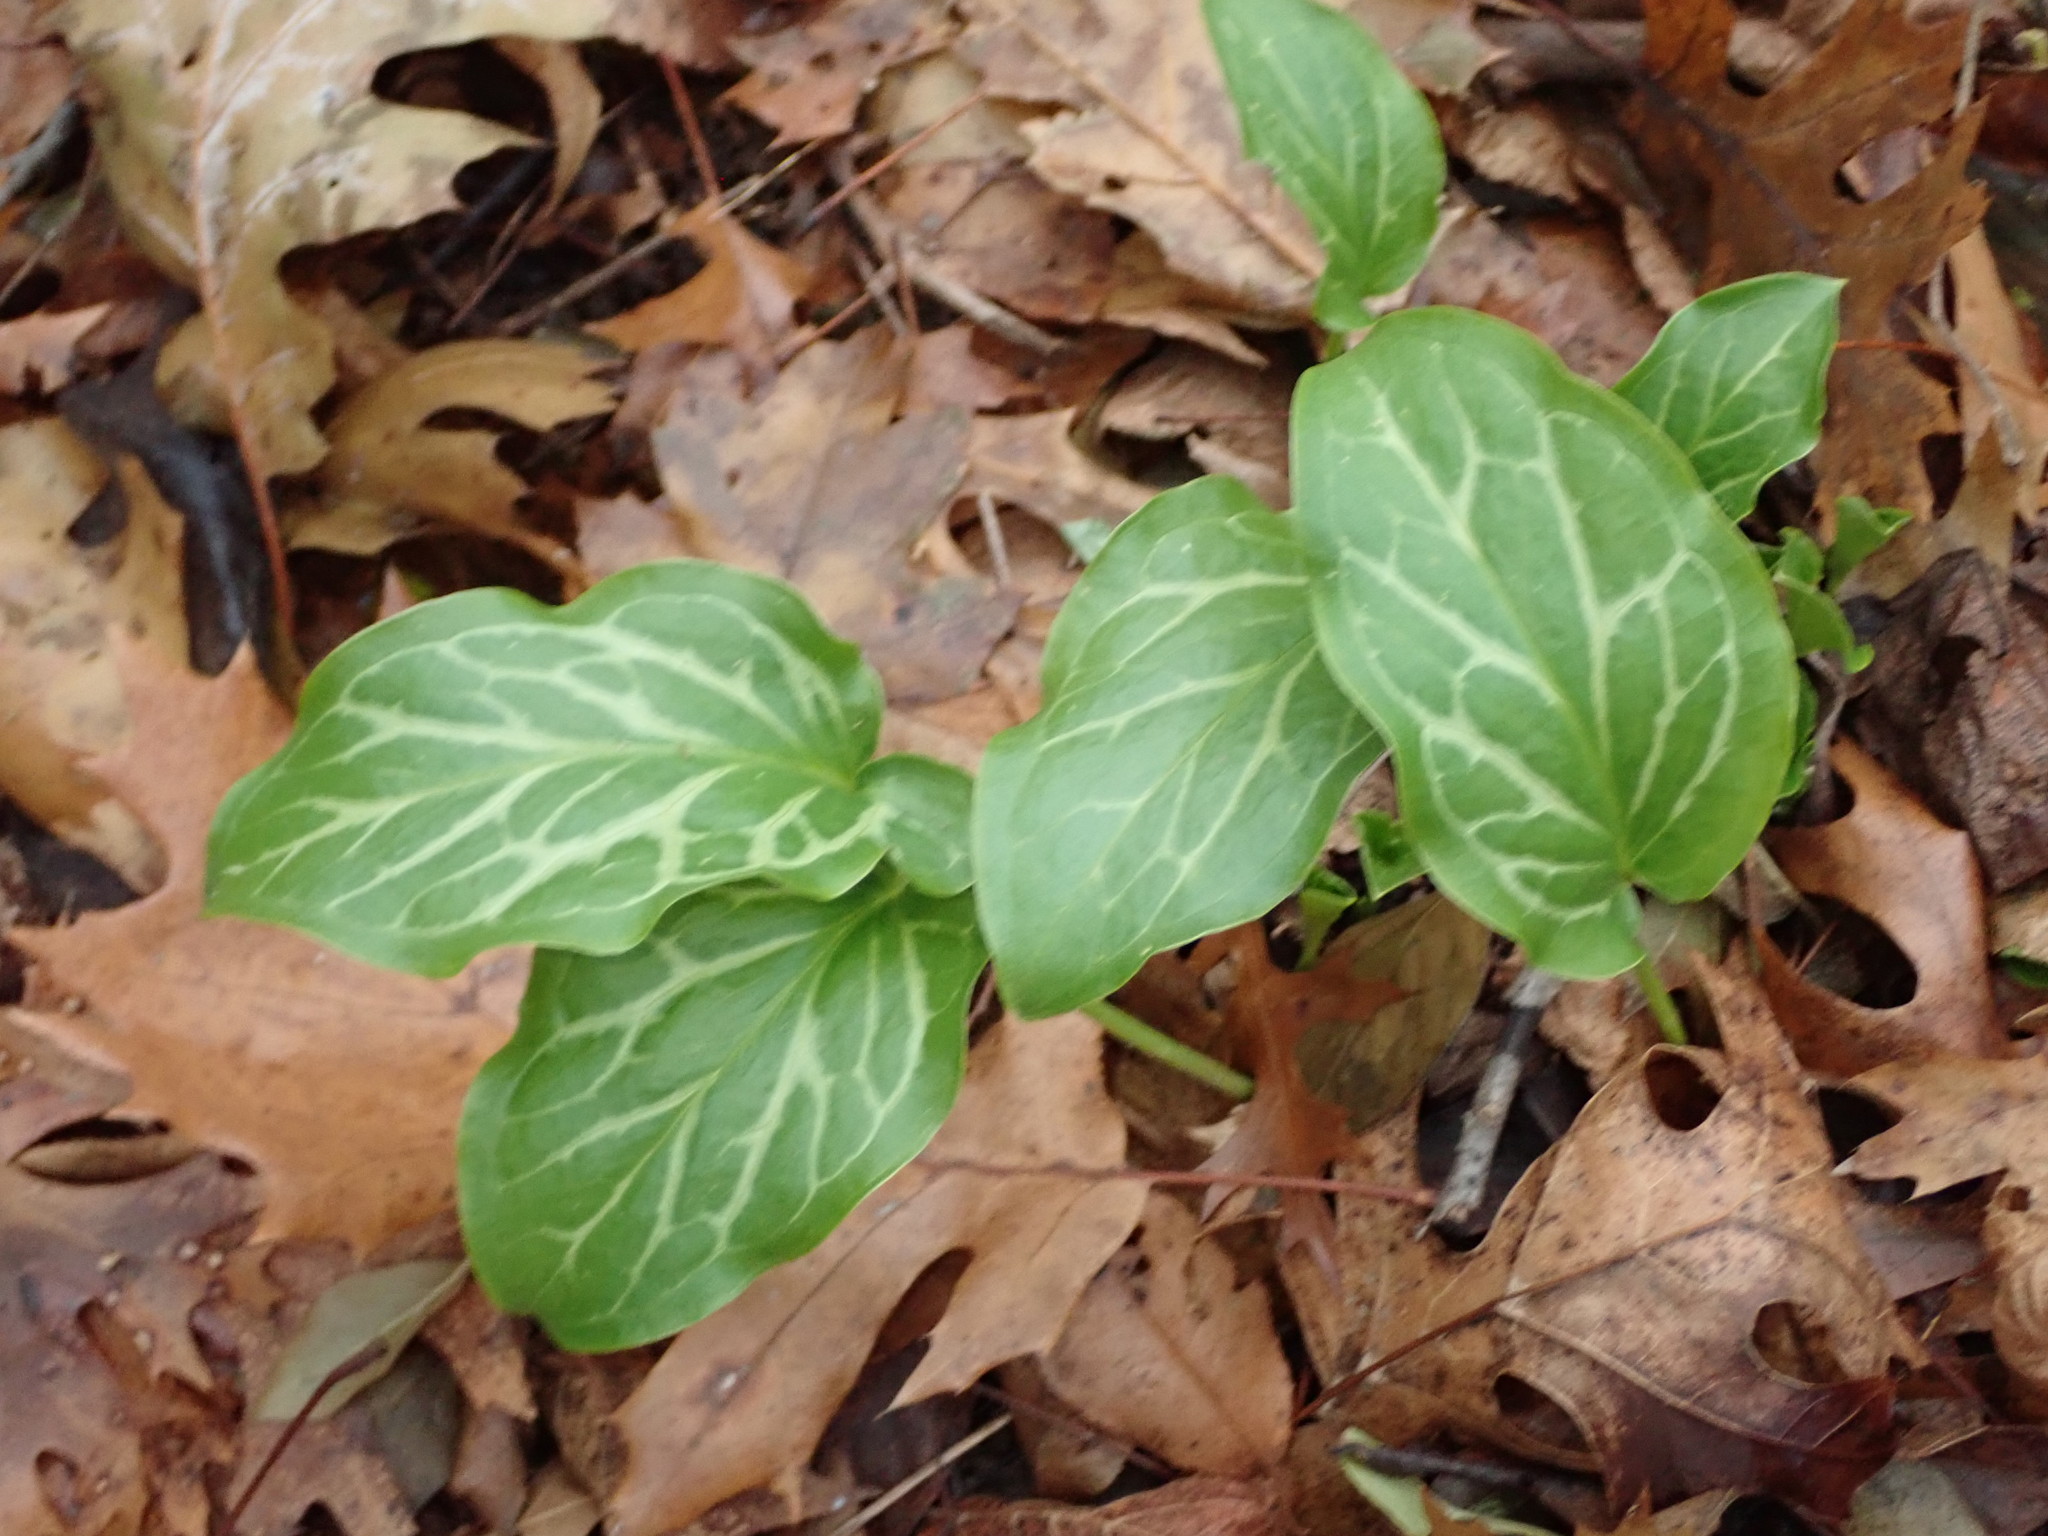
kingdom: Plantae
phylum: Tracheophyta
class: Liliopsida
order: Alismatales
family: Araceae
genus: Arum
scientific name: Arum italicum
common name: Italian lords-and-ladies
